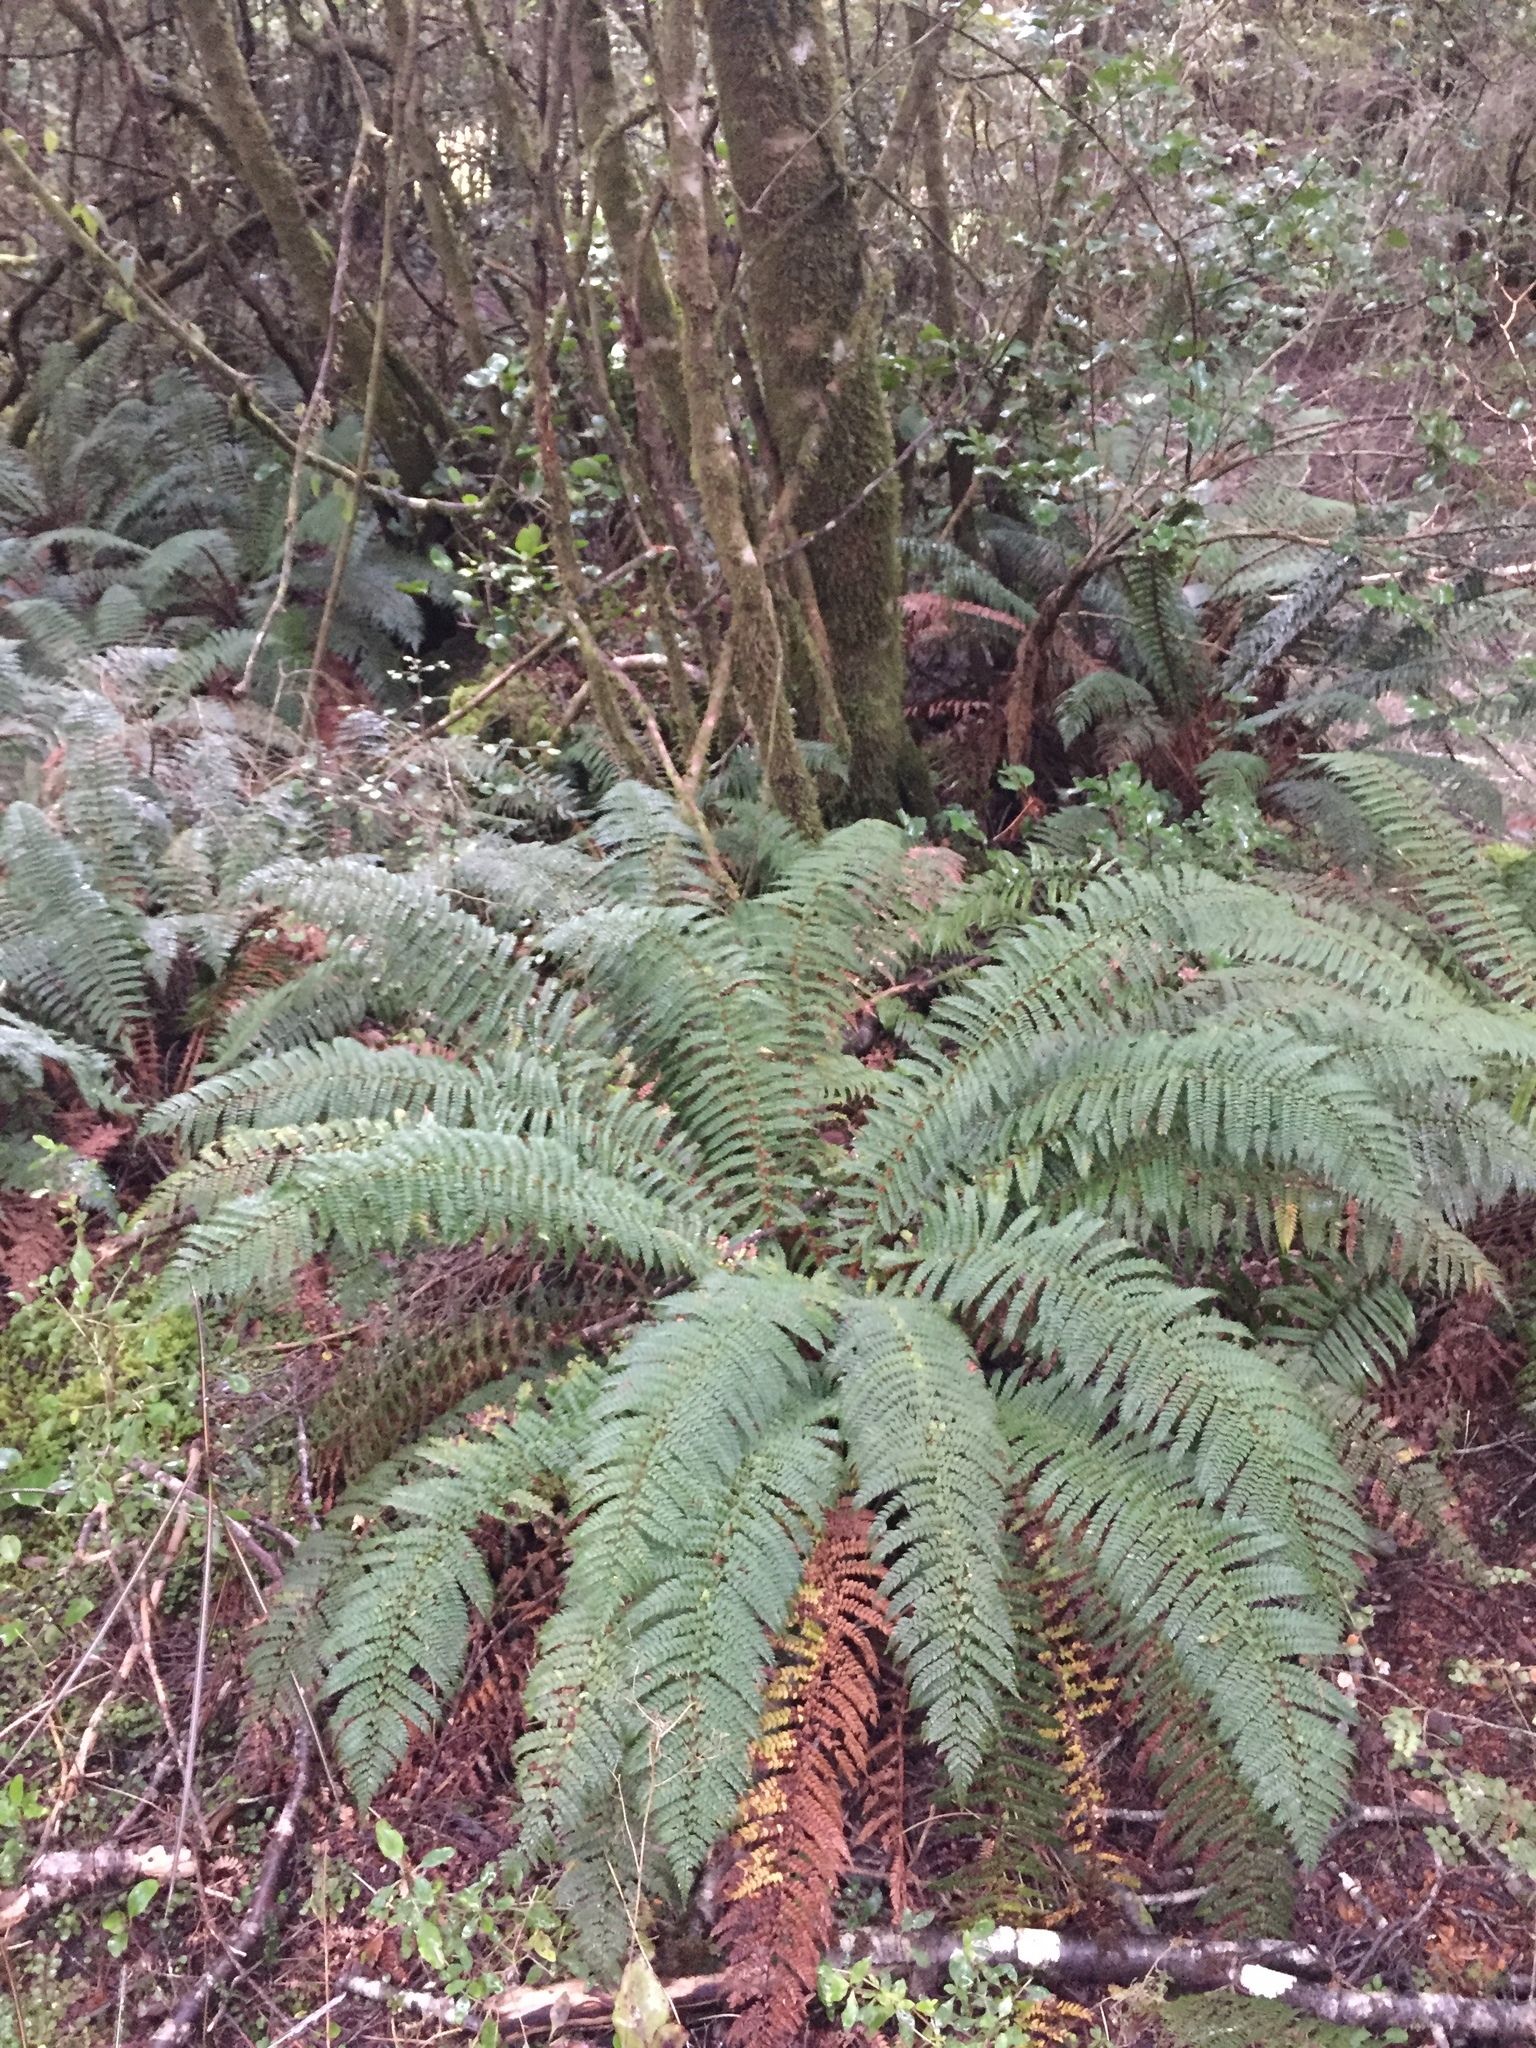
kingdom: Plantae
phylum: Tracheophyta
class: Polypodiopsida
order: Polypodiales
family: Dryopteridaceae
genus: Polystichum
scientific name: Polystichum vestitum
